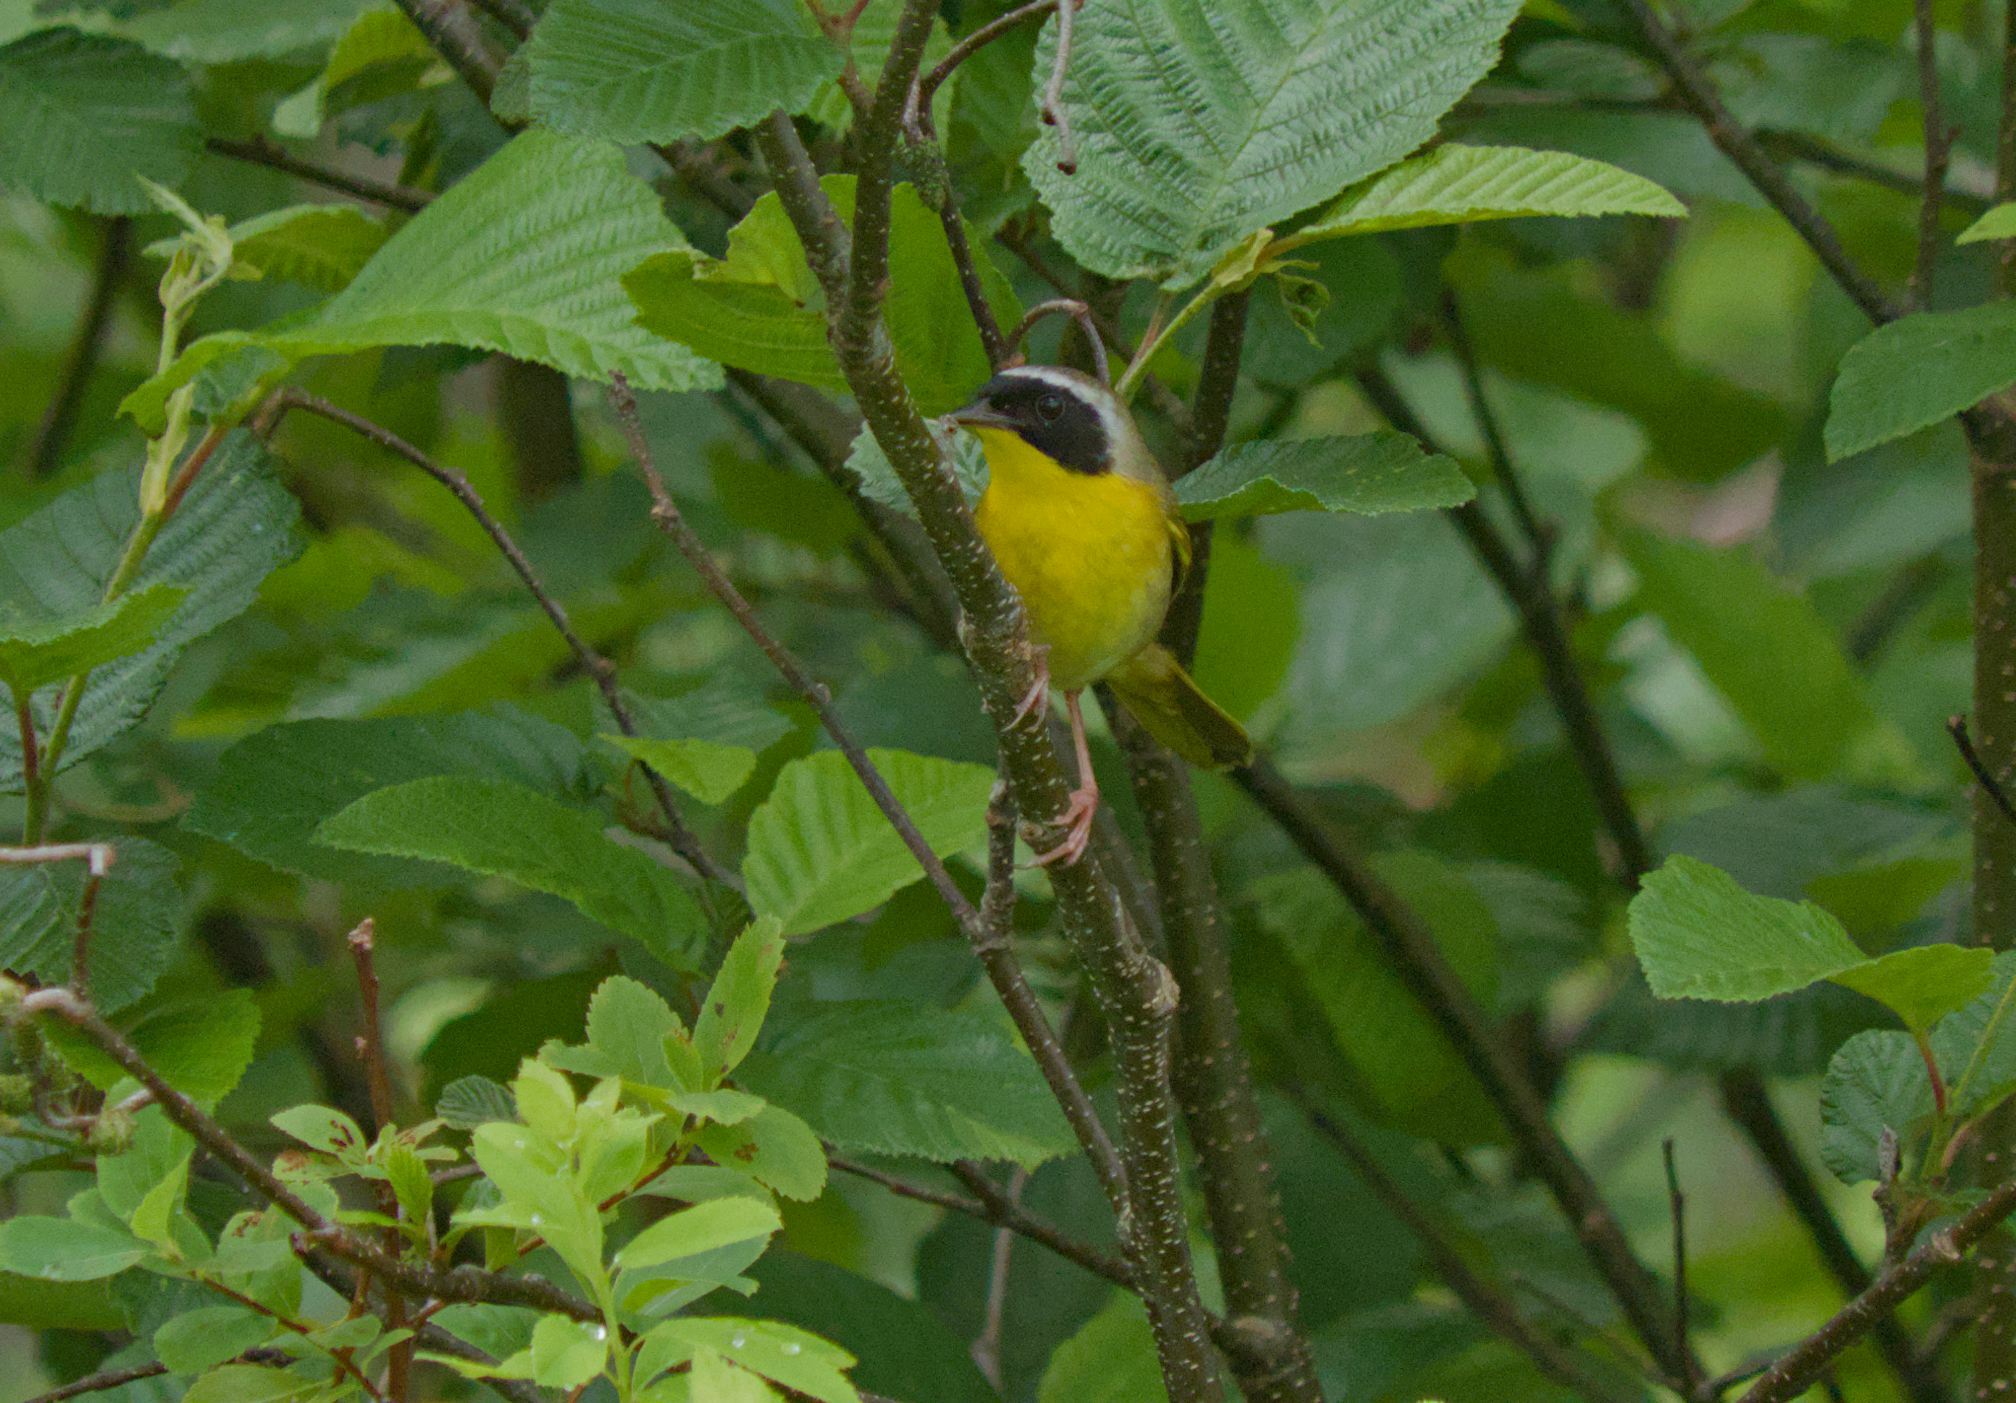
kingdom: Animalia
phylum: Chordata
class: Aves
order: Passeriformes
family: Parulidae
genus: Geothlypis
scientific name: Geothlypis trichas
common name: Common yellowthroat
